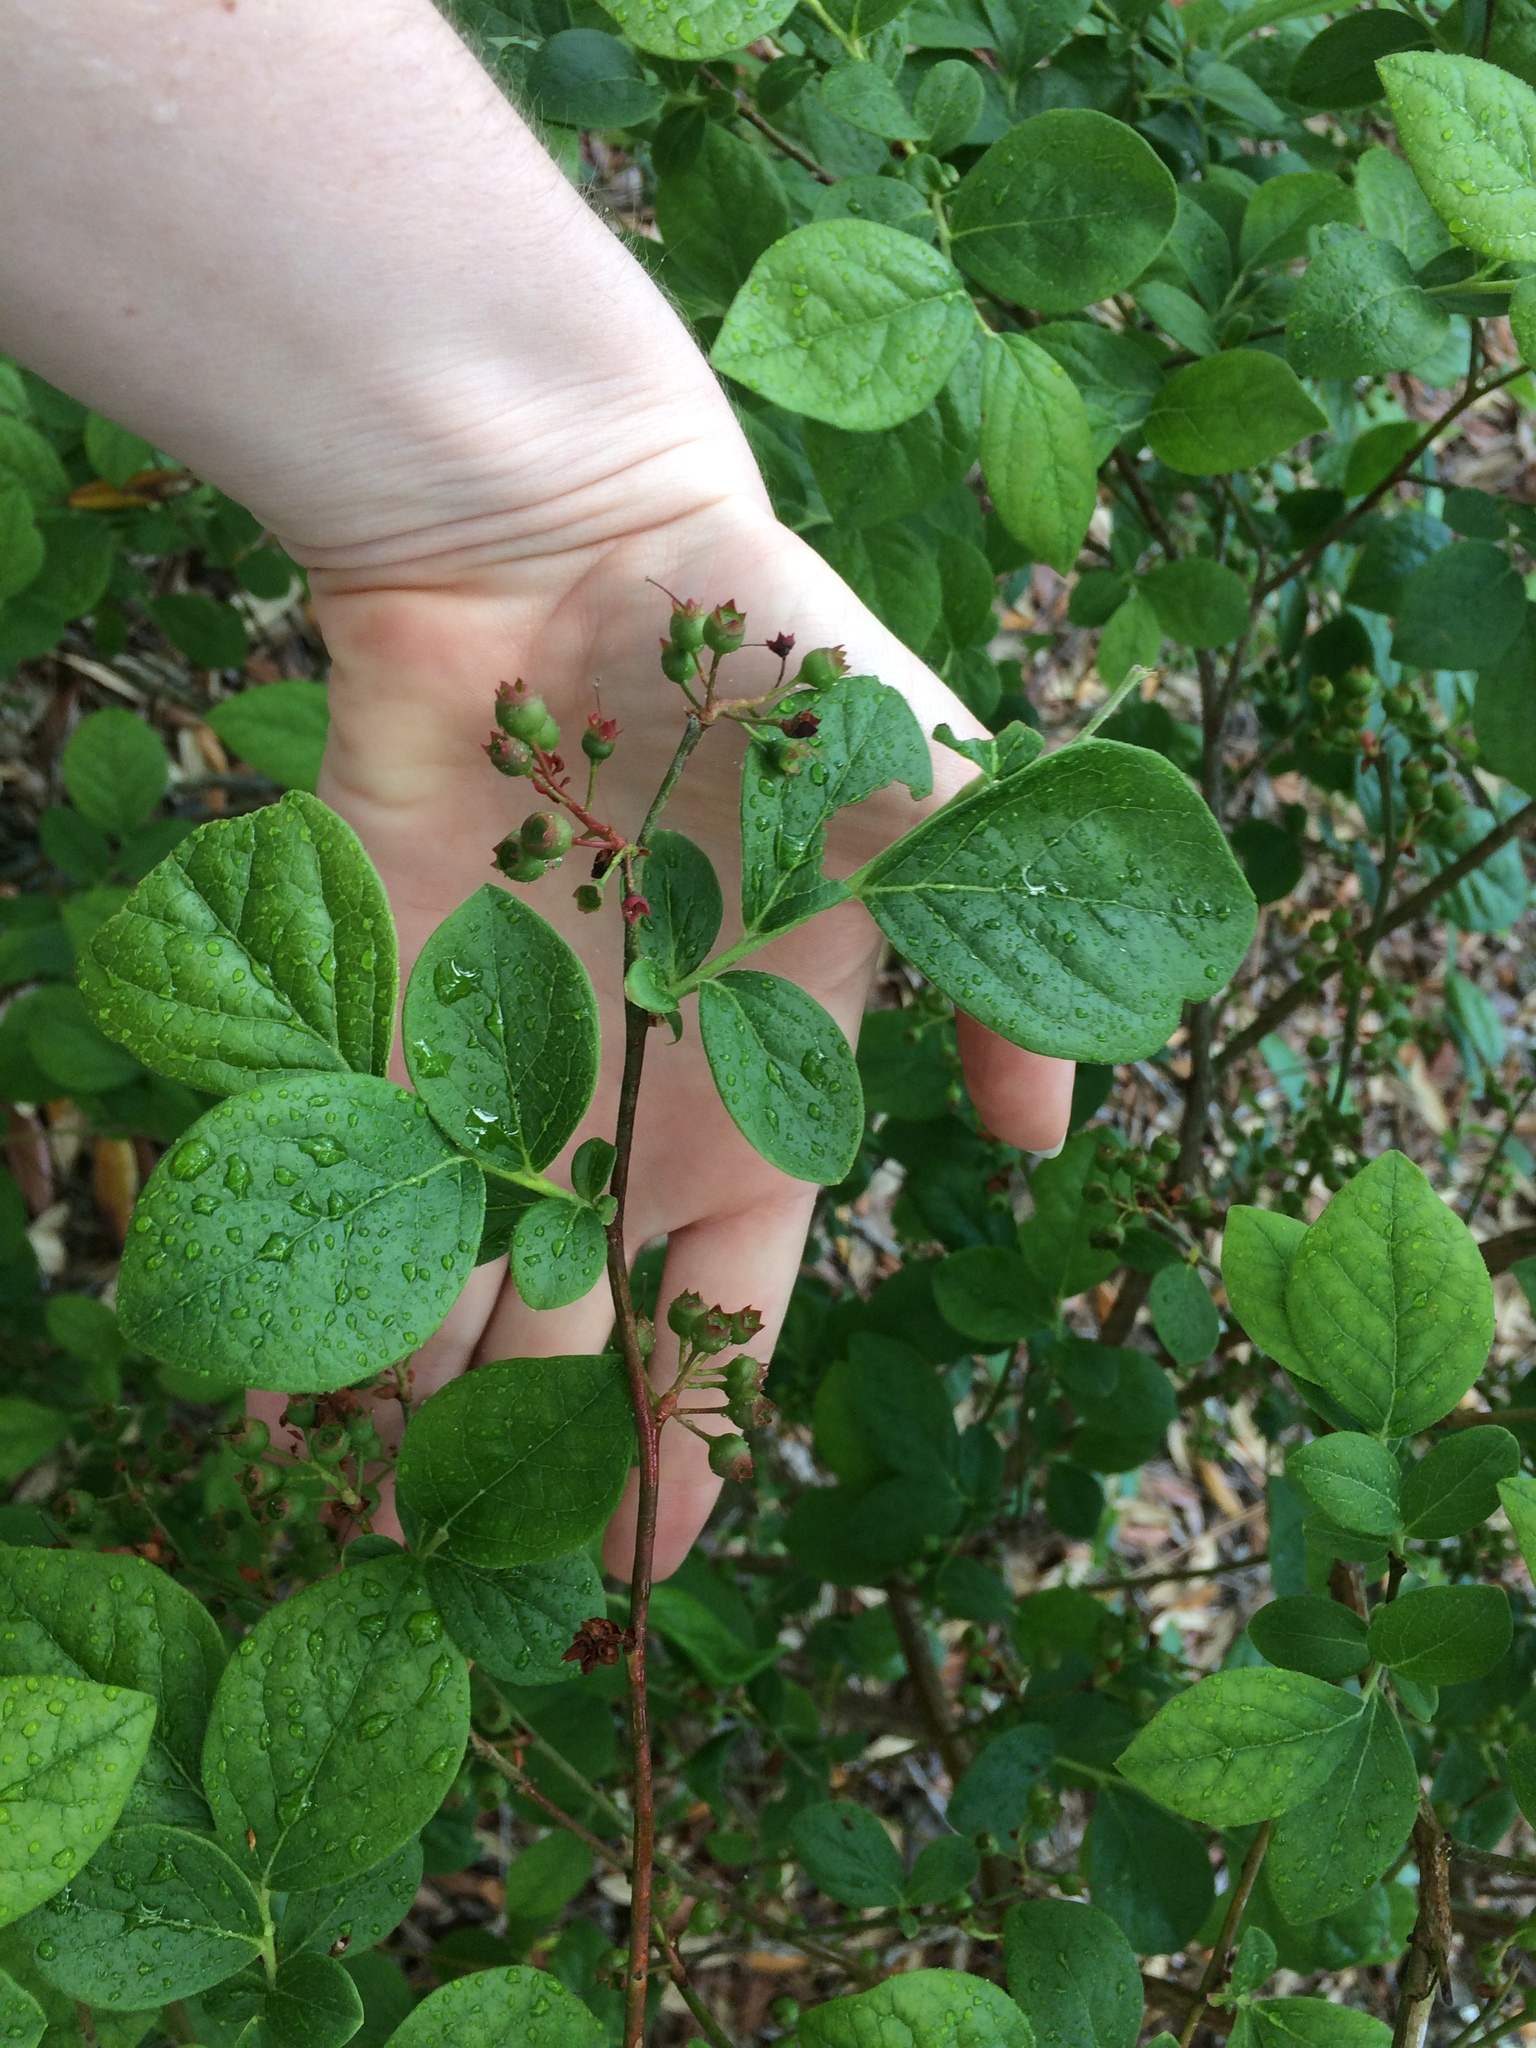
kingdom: Plantae
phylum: Tracheophyta
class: Magnoliopsida
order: Ericales
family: Ericaceae
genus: Vaccinium
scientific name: Vaccinium arboreum
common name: Farkleberry
